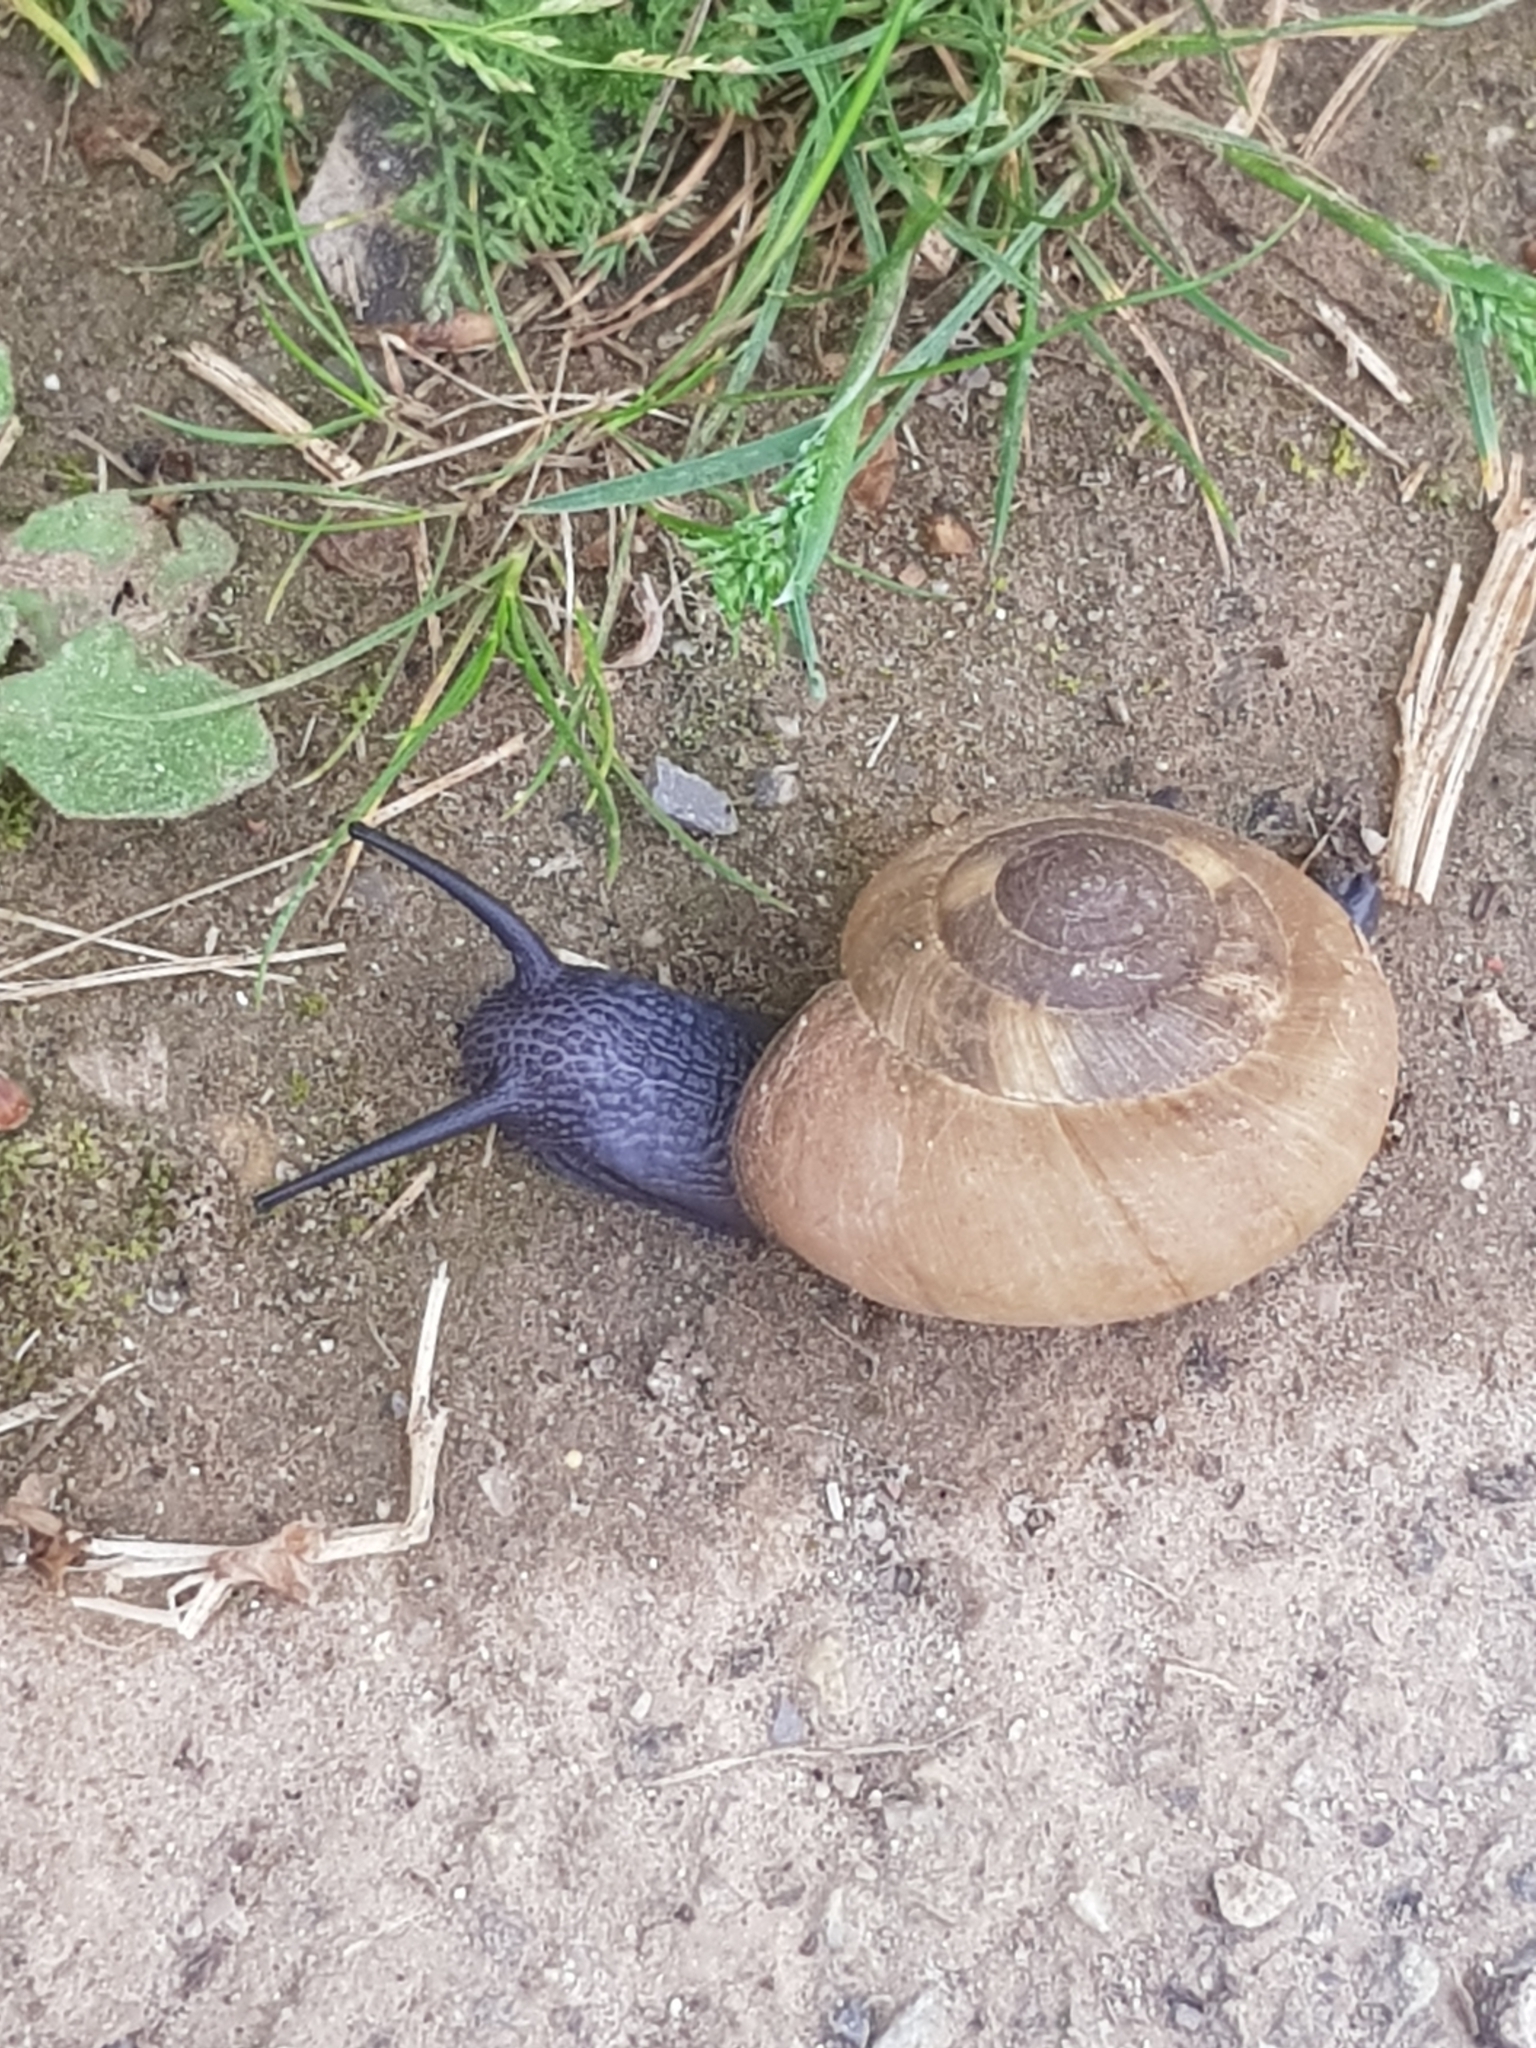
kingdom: Animalia
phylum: Mollusca
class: Gastropoda
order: Stylommatophora
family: Zonitidae
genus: Zonites
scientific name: Zonites algirus
